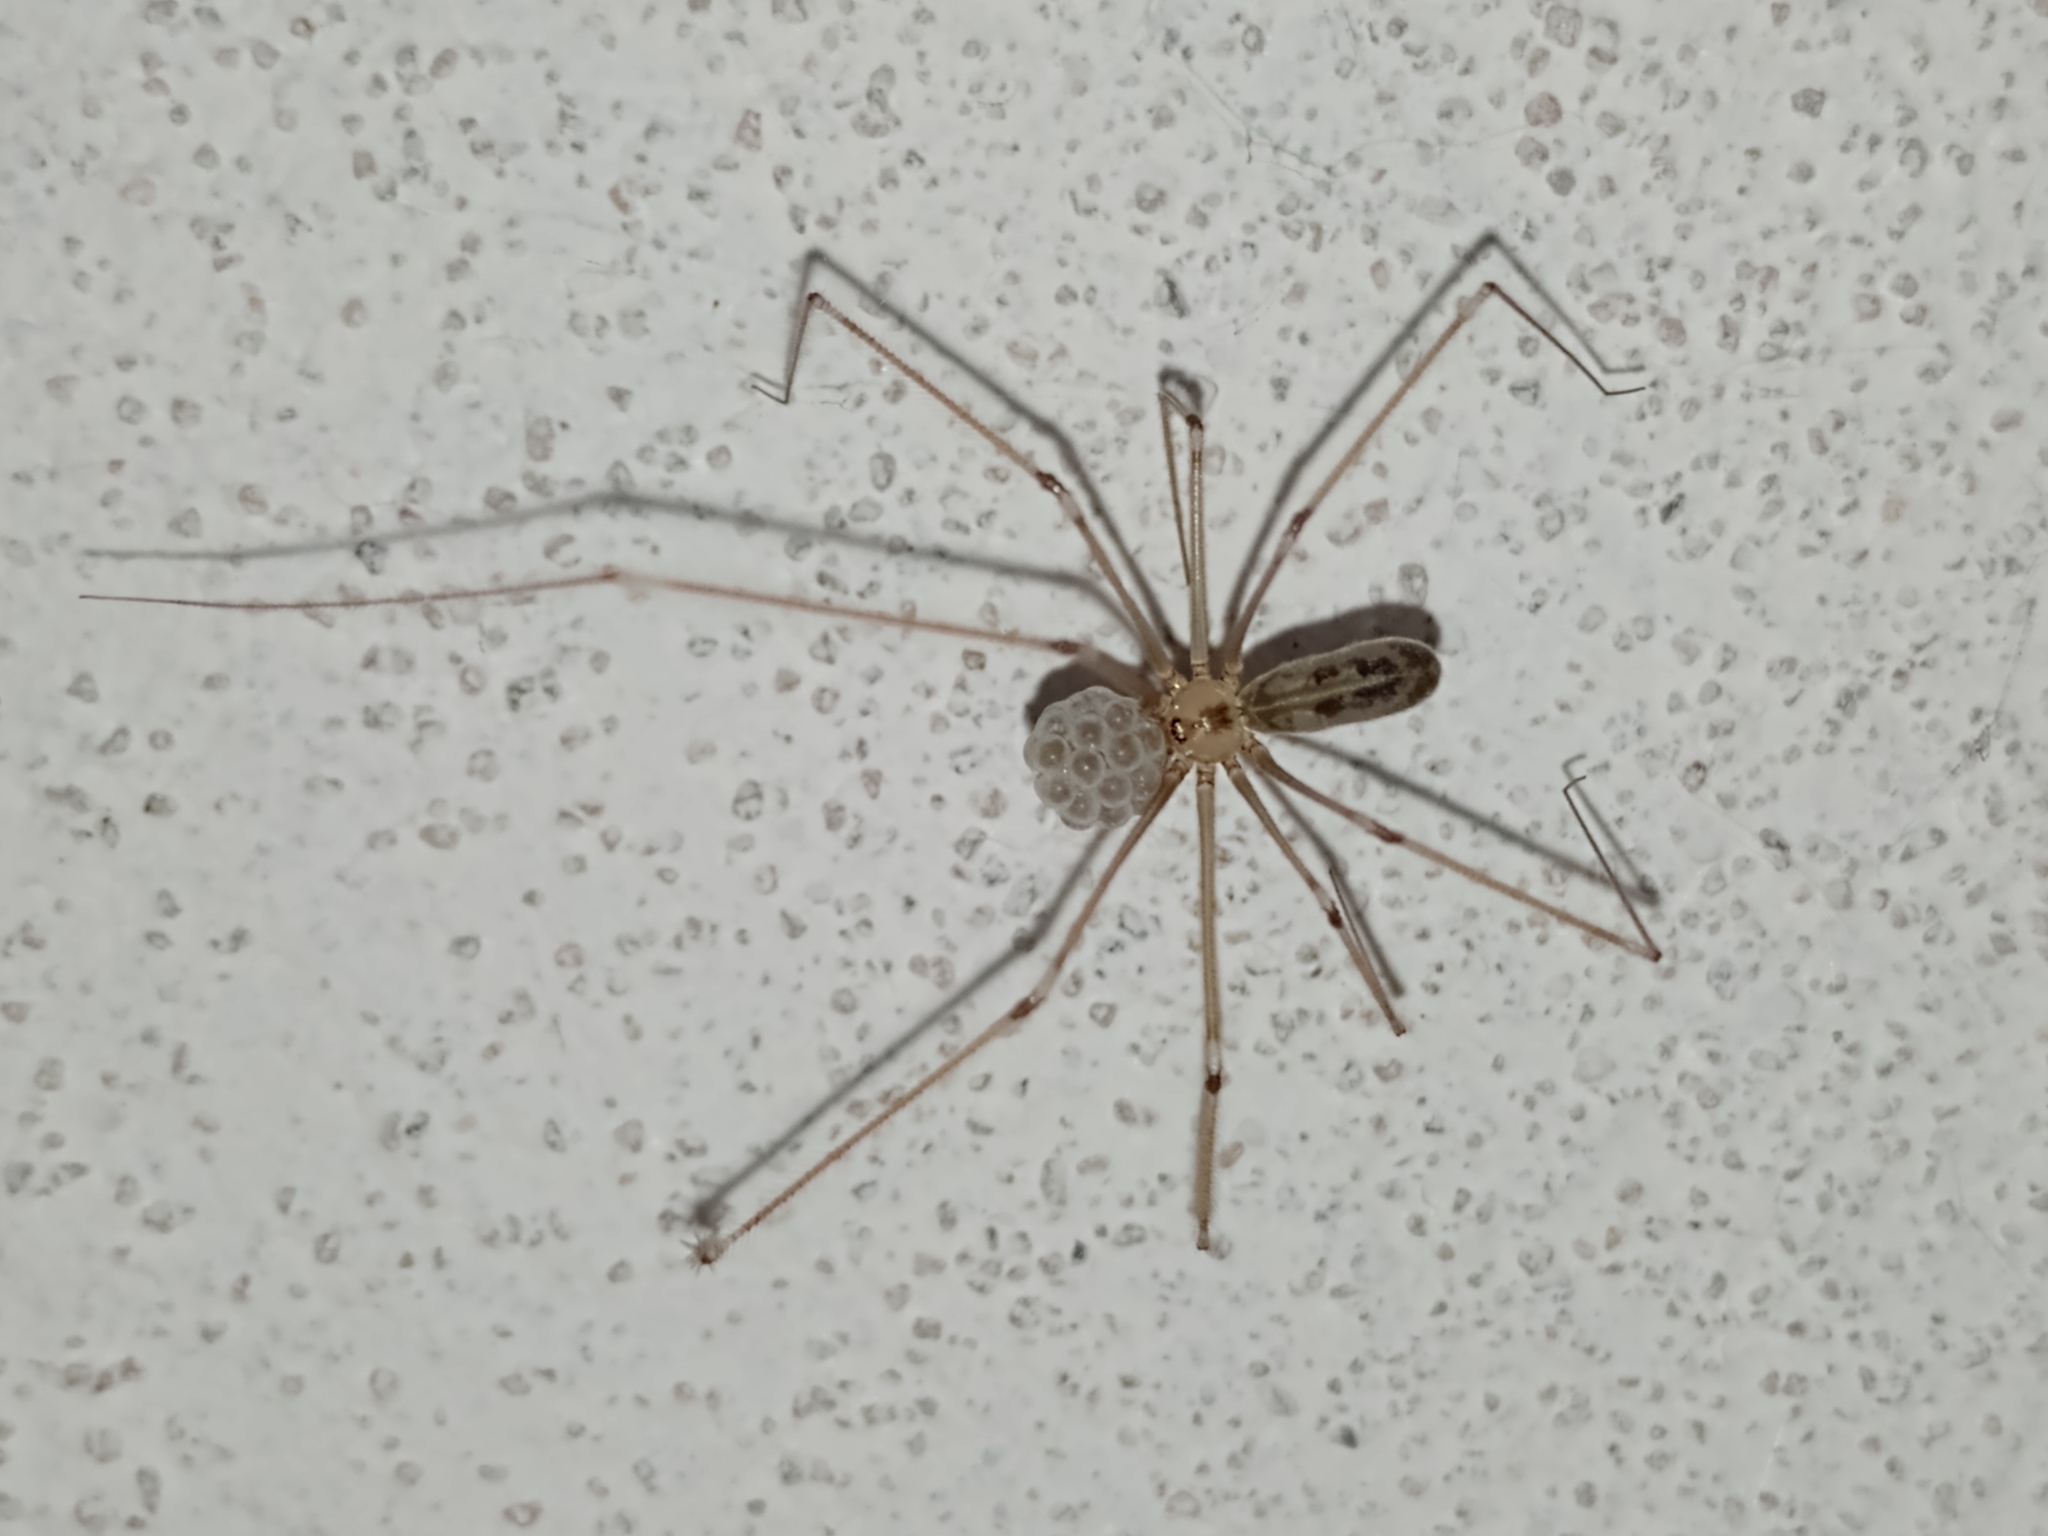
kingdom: Animalia
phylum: Arthropoda
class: Arachnida
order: Araneae
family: Pholcidae
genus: Pholcus
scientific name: Pholcus phalangioides
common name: Longbodied cellar spider
